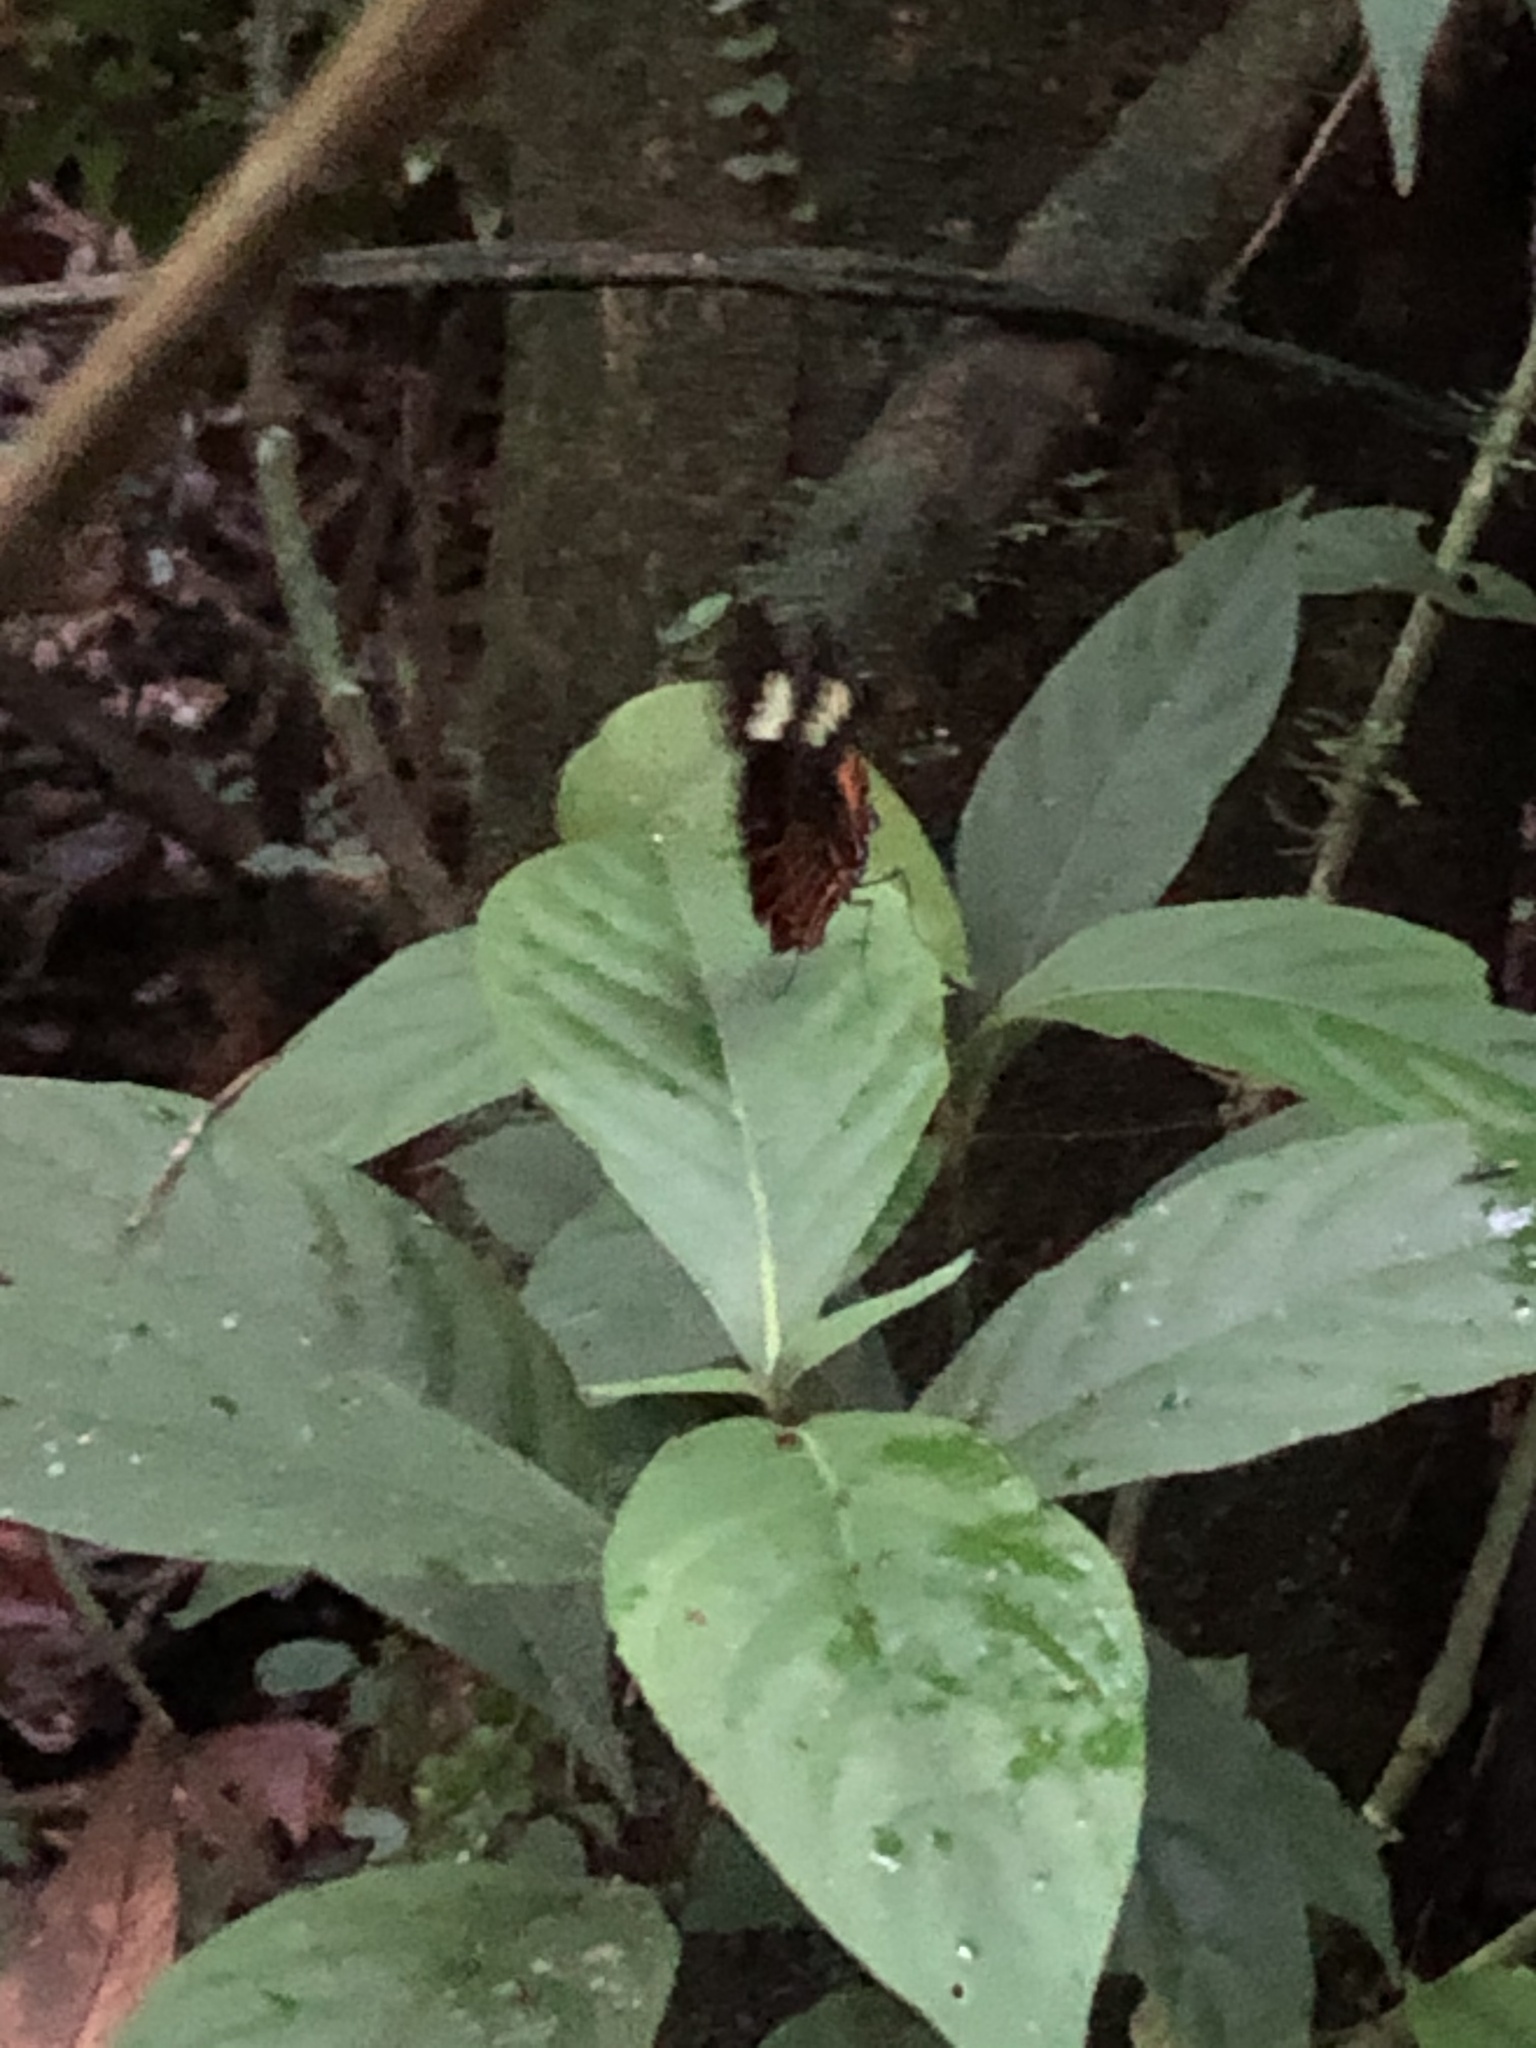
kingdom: Animalia
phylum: Arthropoda
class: Insecta
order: Lepidoptera
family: Nymphalidae
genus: Heliconius
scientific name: Heliconius melpomene
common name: Postman
